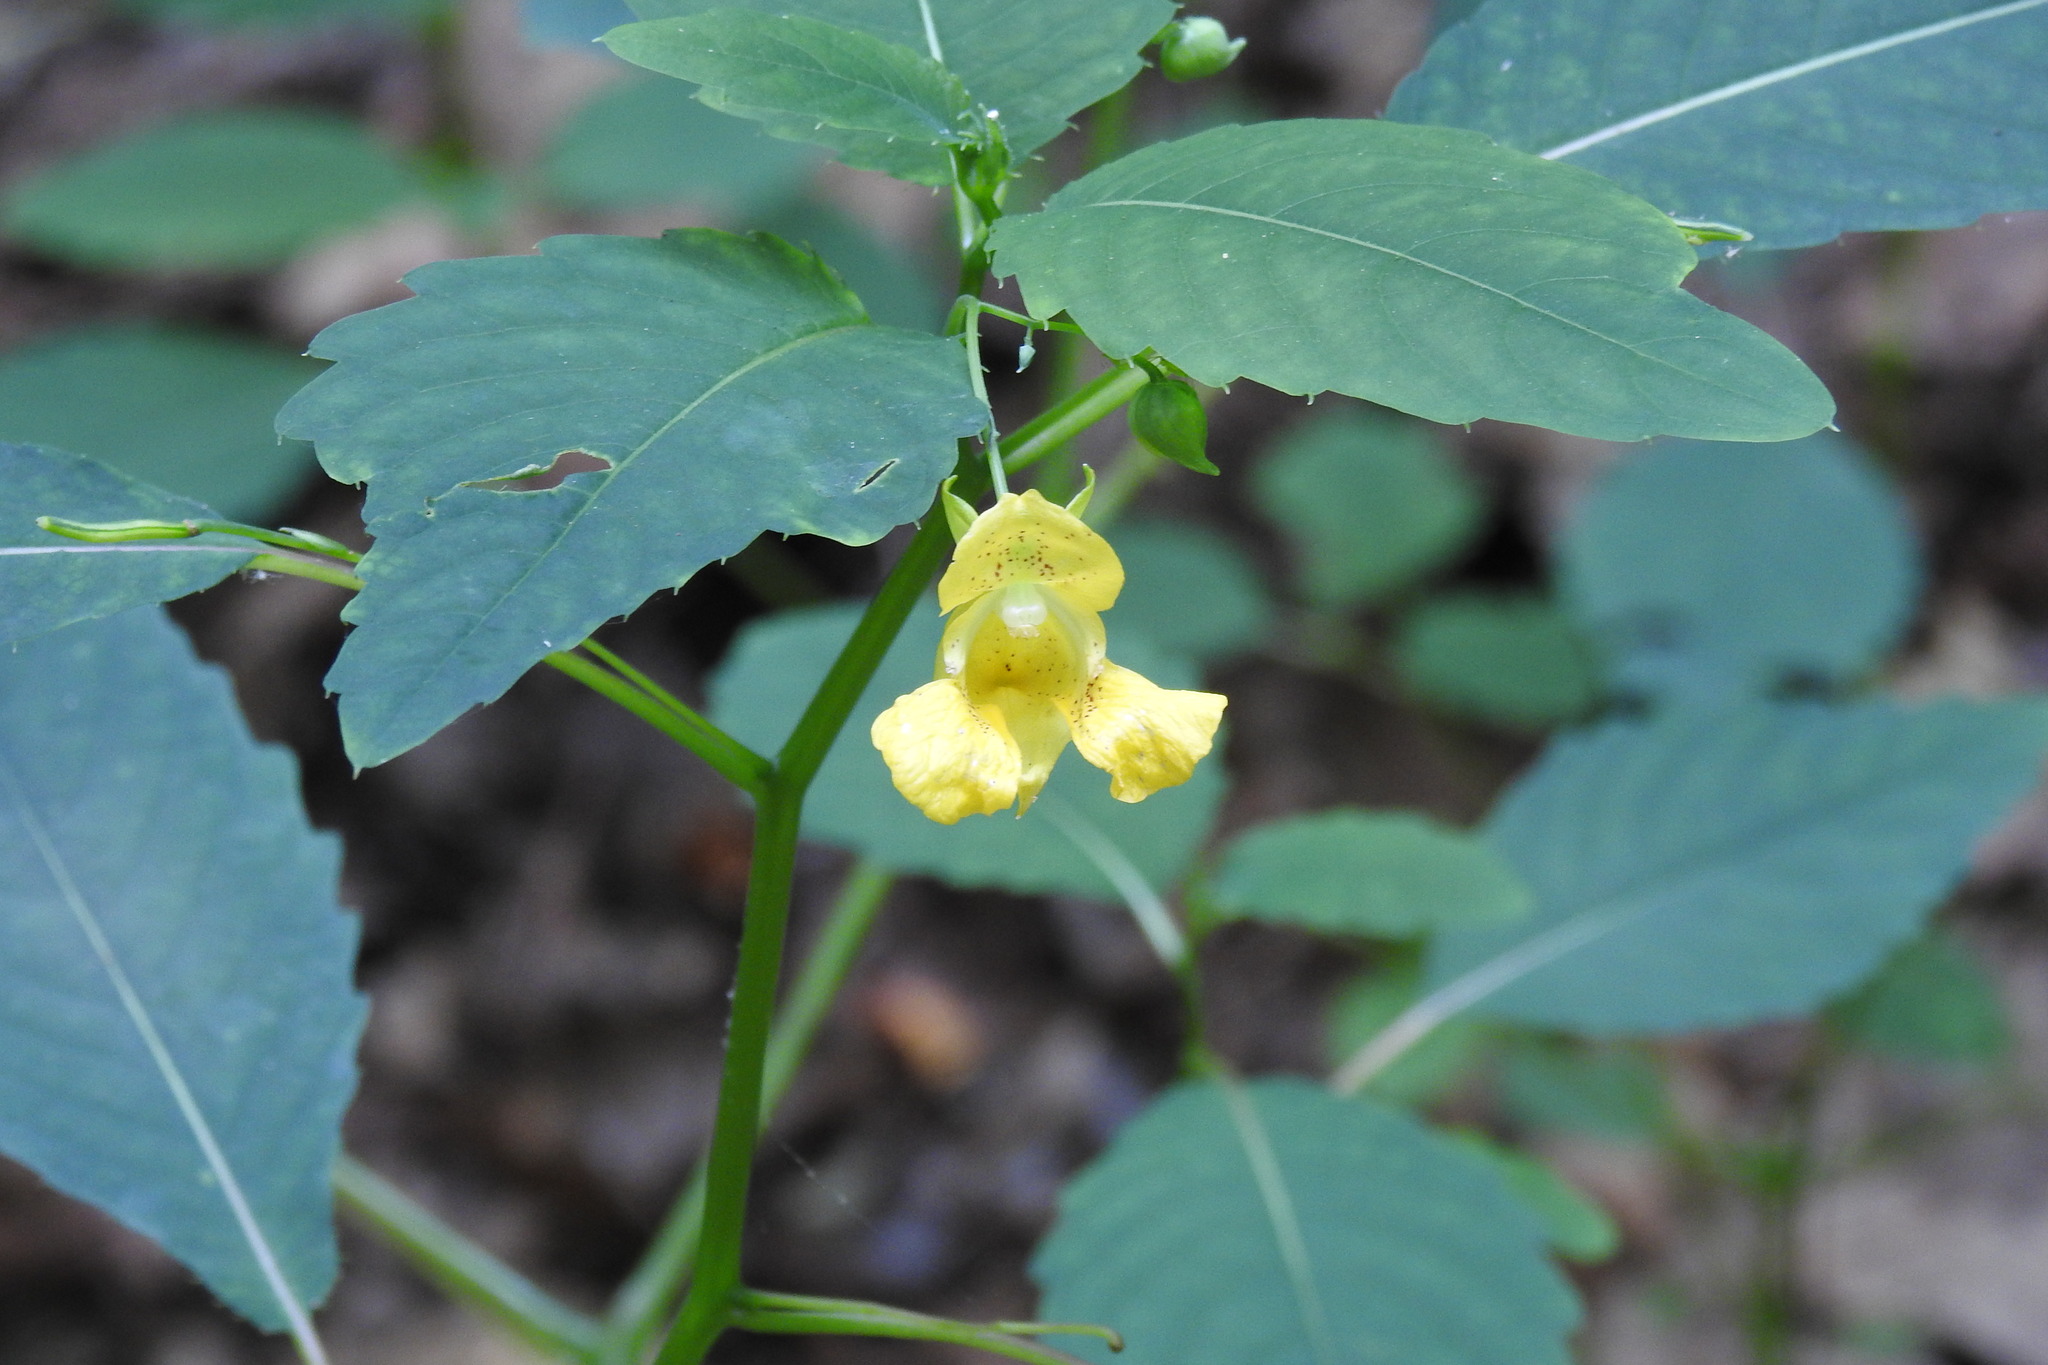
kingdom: Plantae
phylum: Tracheophyta
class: Magnoliopsida
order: Ericales
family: Balsaminaceae
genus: Impatiens
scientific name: Impatiens pallida
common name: Pale snapweed
